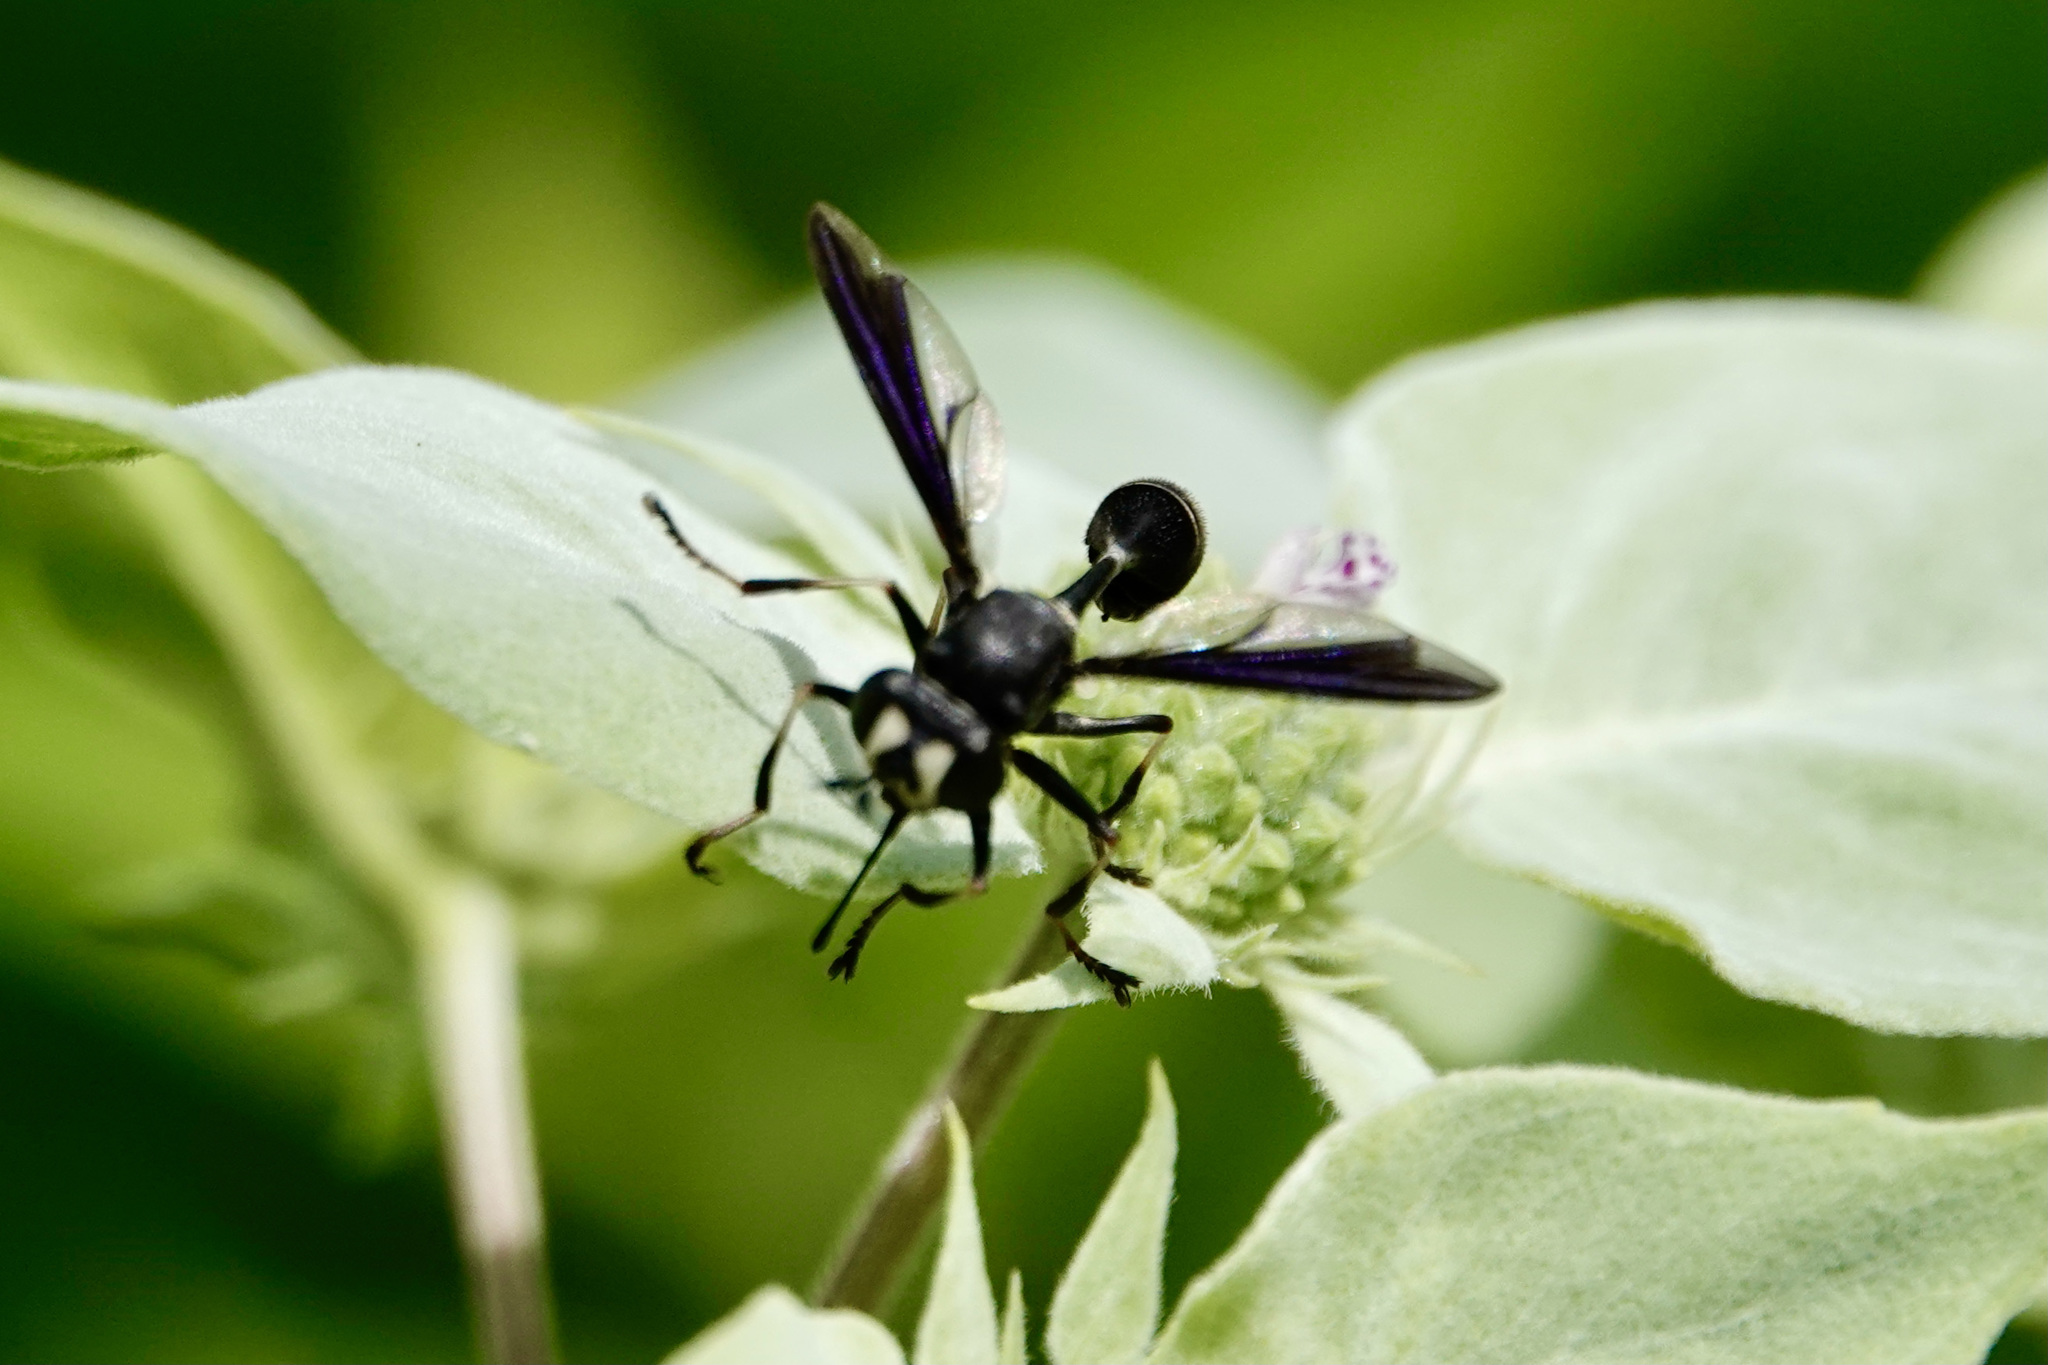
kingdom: Animalia
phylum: Arthropoda
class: Insecta
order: Diptera
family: Conopidae
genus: Physocephala
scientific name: Physocephala tibialis
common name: Common eastern physocephala
